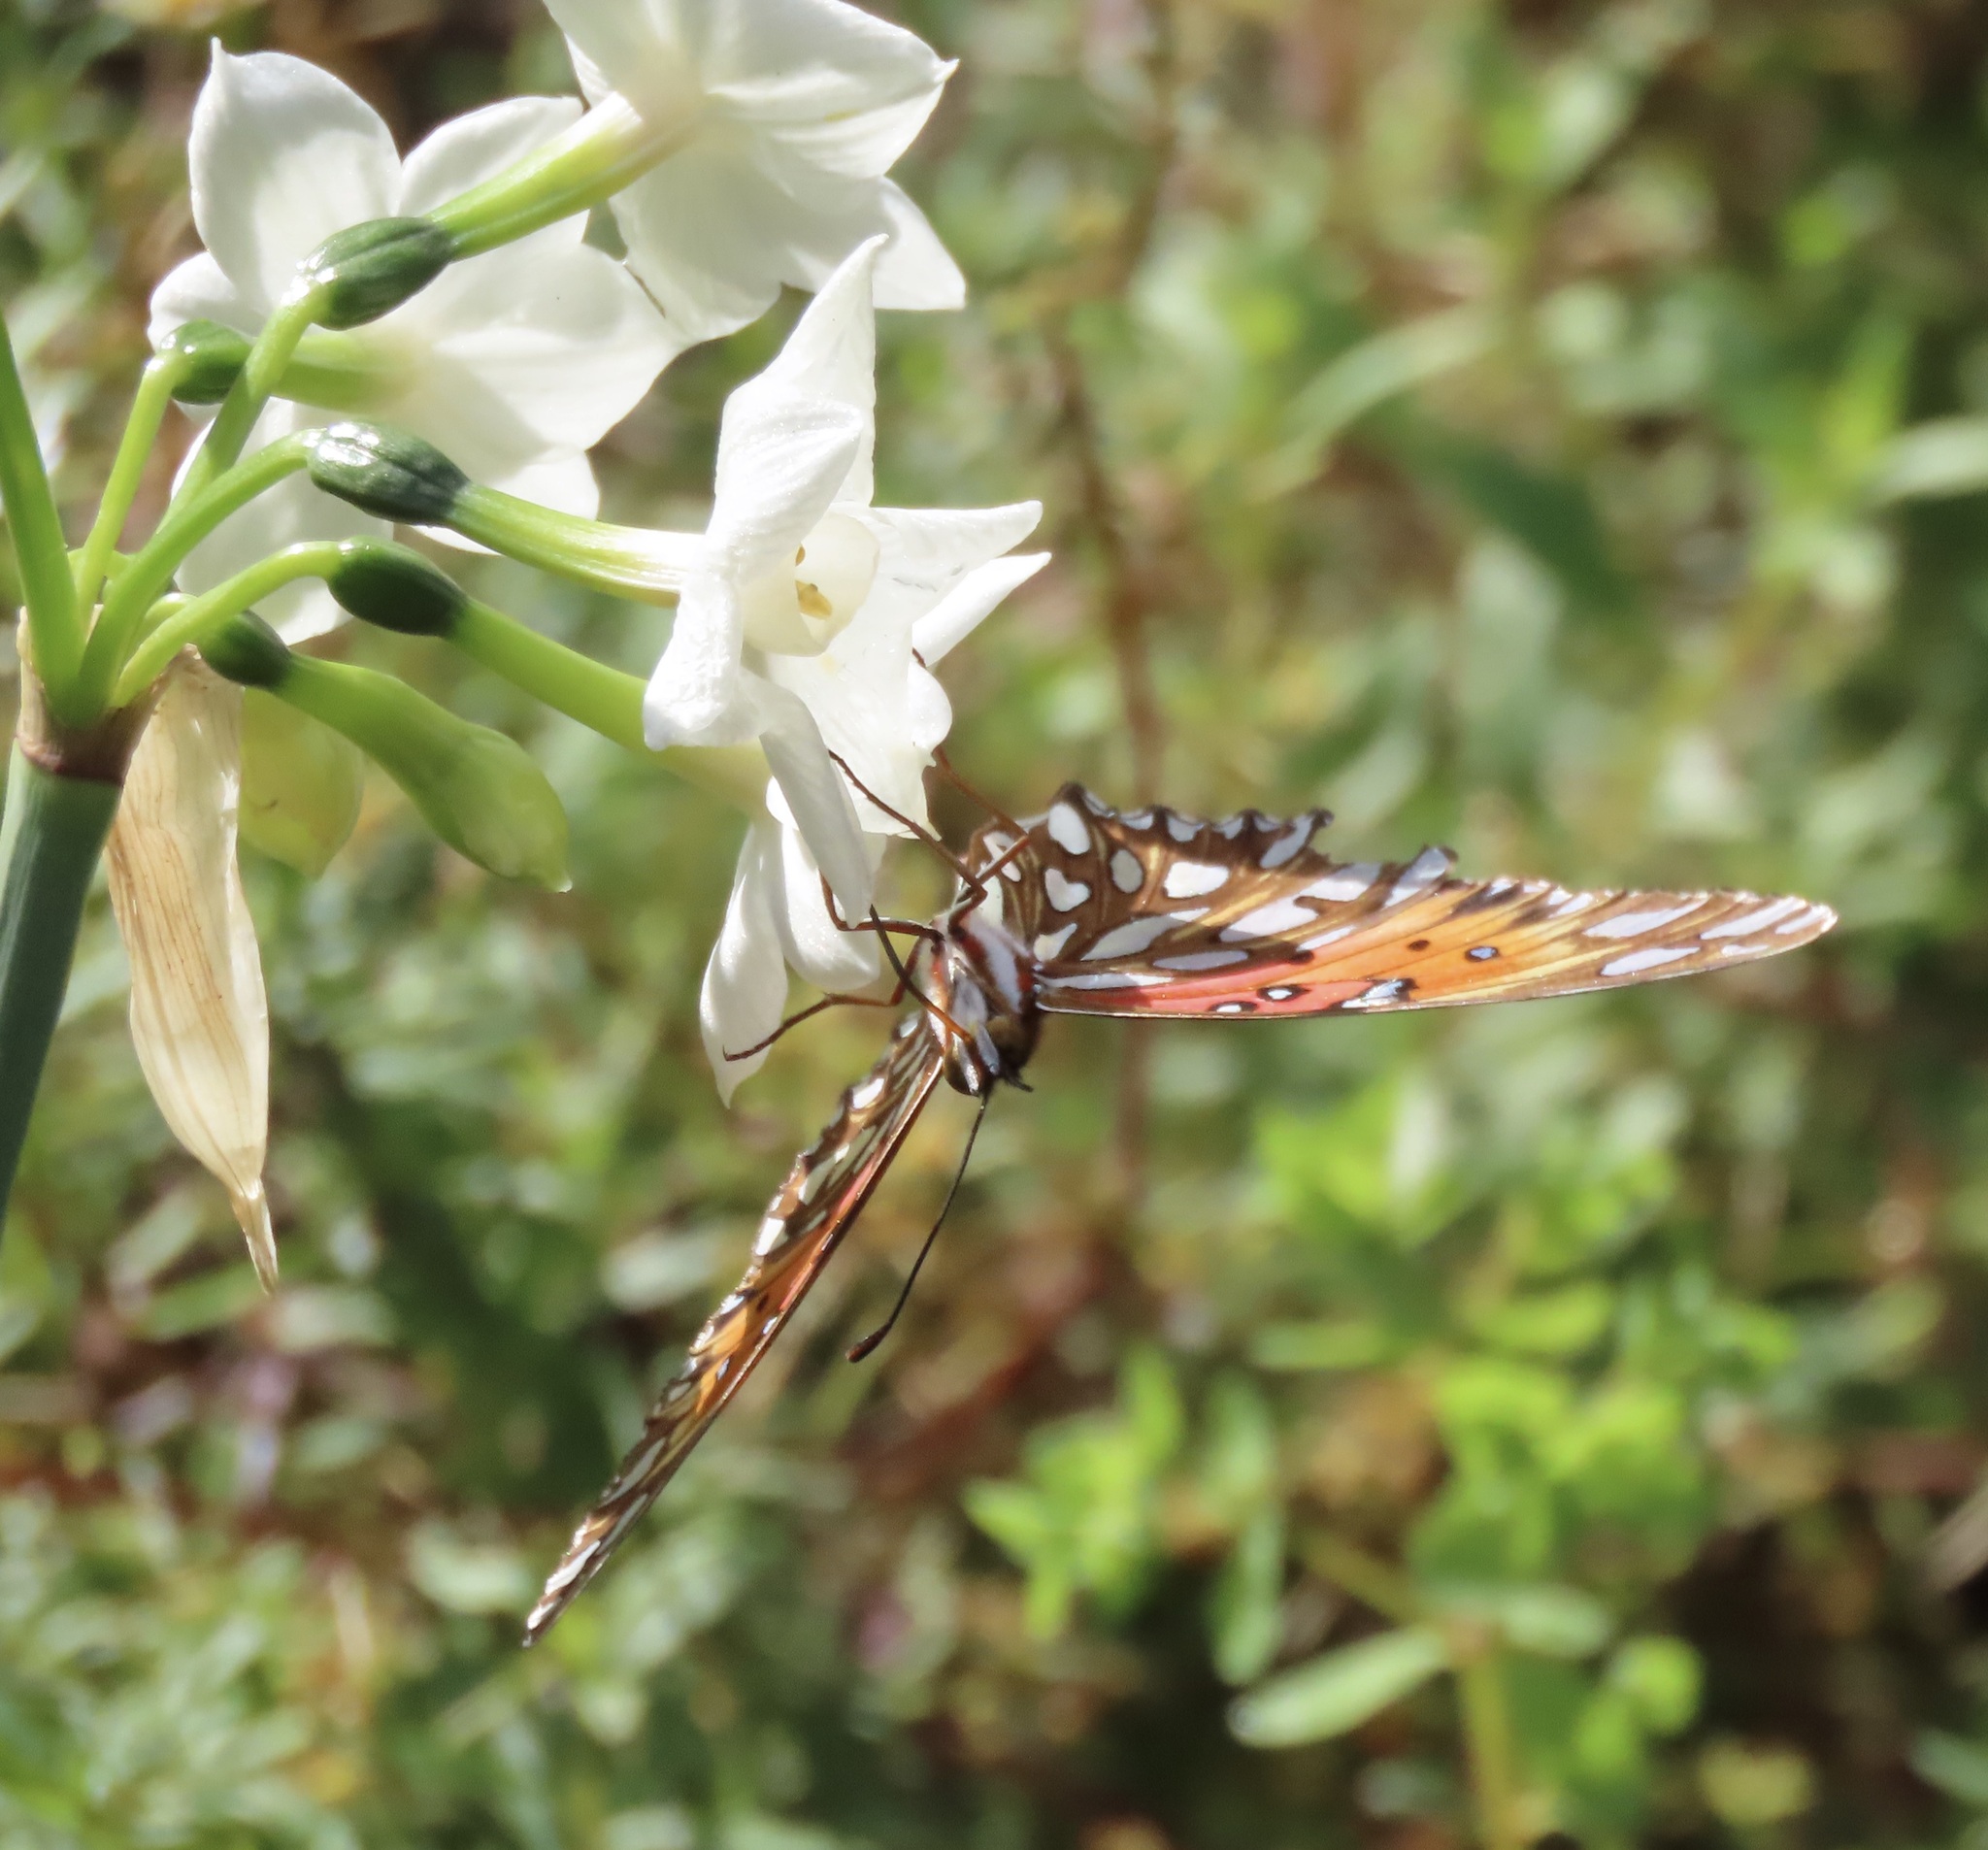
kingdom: Animalia
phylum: Arthropoda
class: Insecta
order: Lepidoptera
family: Nymphalidae
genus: Dione
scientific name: Dione vanillae
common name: Gulf fritillary
